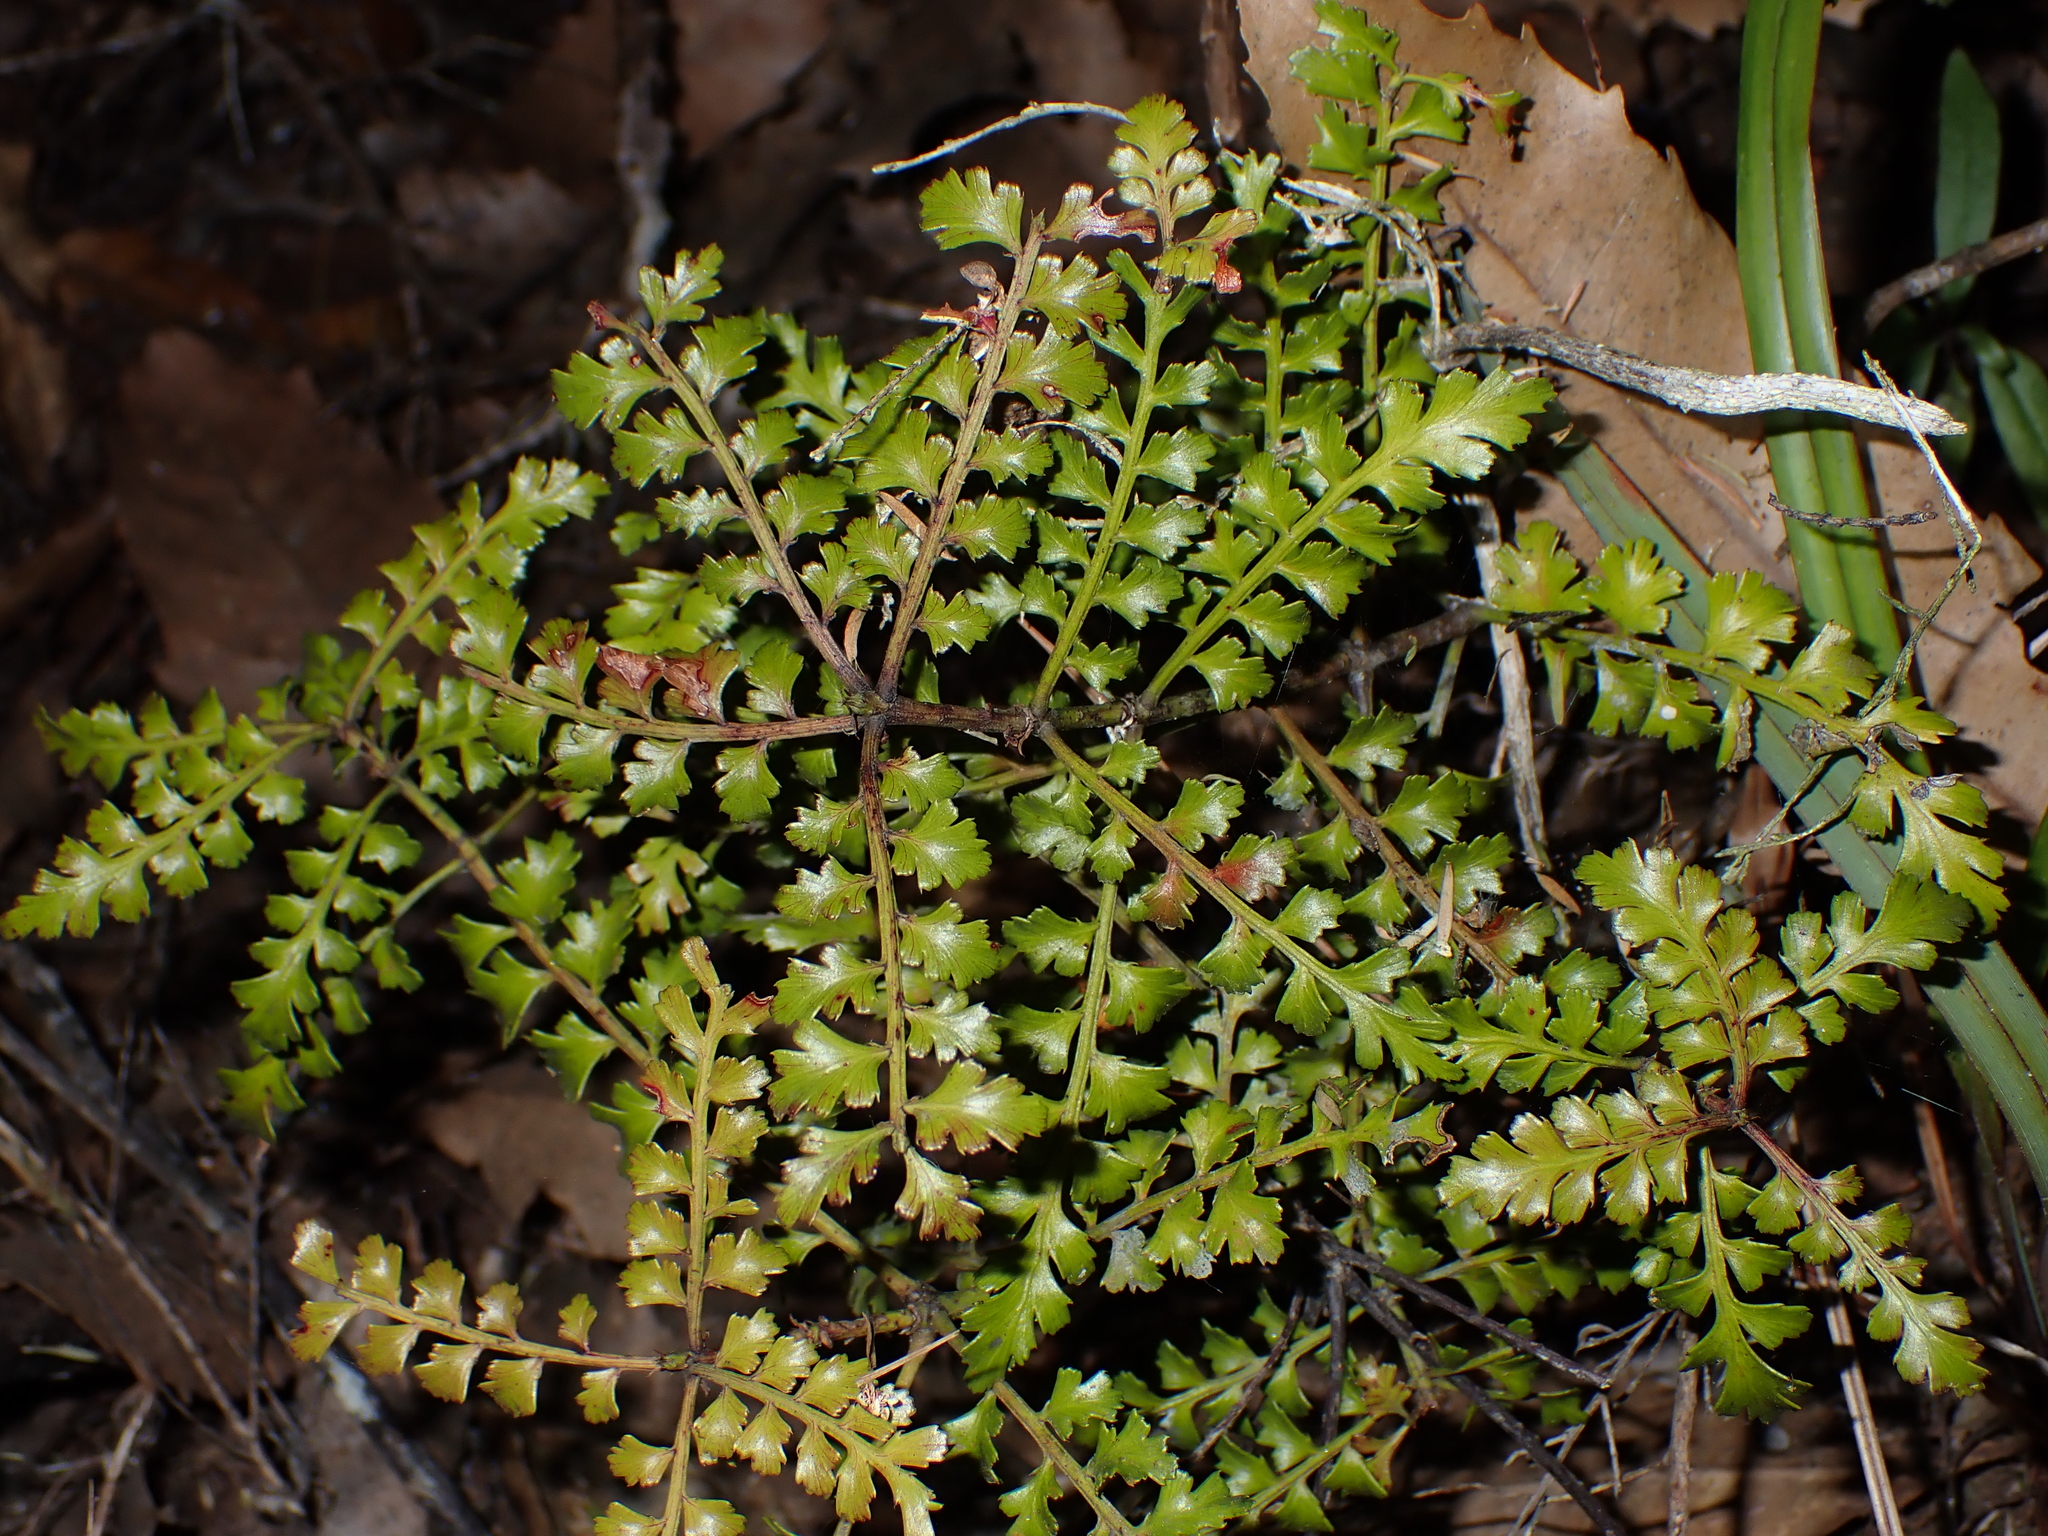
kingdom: Plantae
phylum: Tracheophyta
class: Pinopsida
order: Pinales
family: Phyllocladaceae
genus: Phyllocladus
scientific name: Phyllocladus trichomanoides
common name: Celery pine
